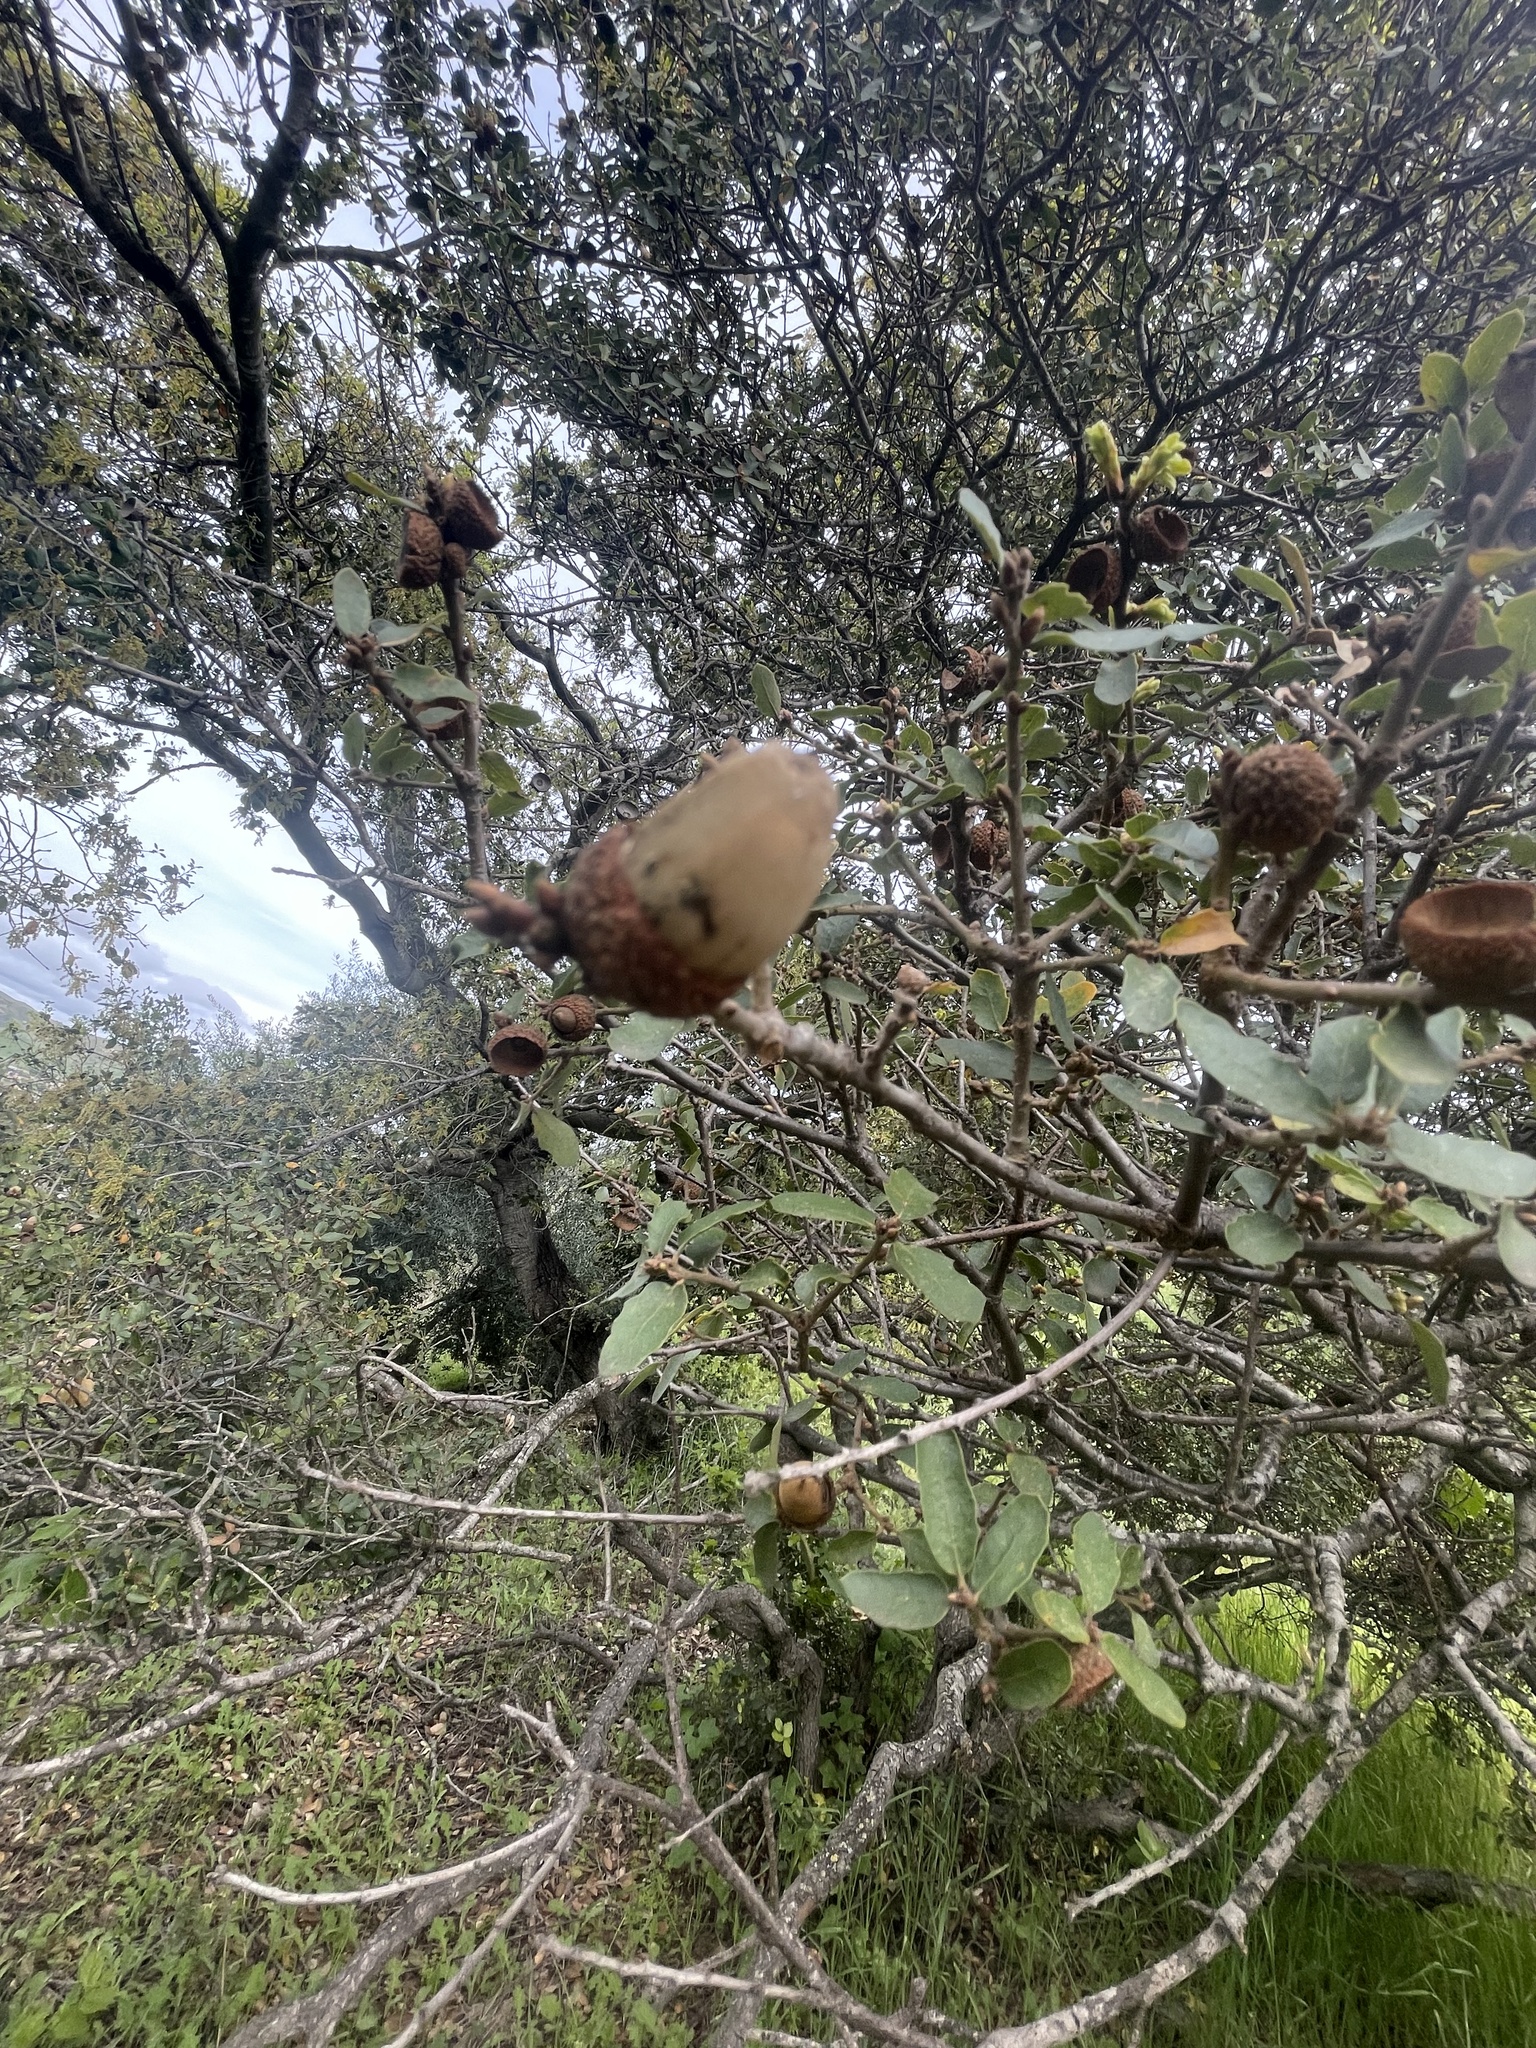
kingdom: Plantae
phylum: Tracheophyta
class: Magnoliopsida
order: Fagales
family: Fagaceae
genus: Quercus
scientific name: Quercus berberidifolia
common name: California scrub oak
